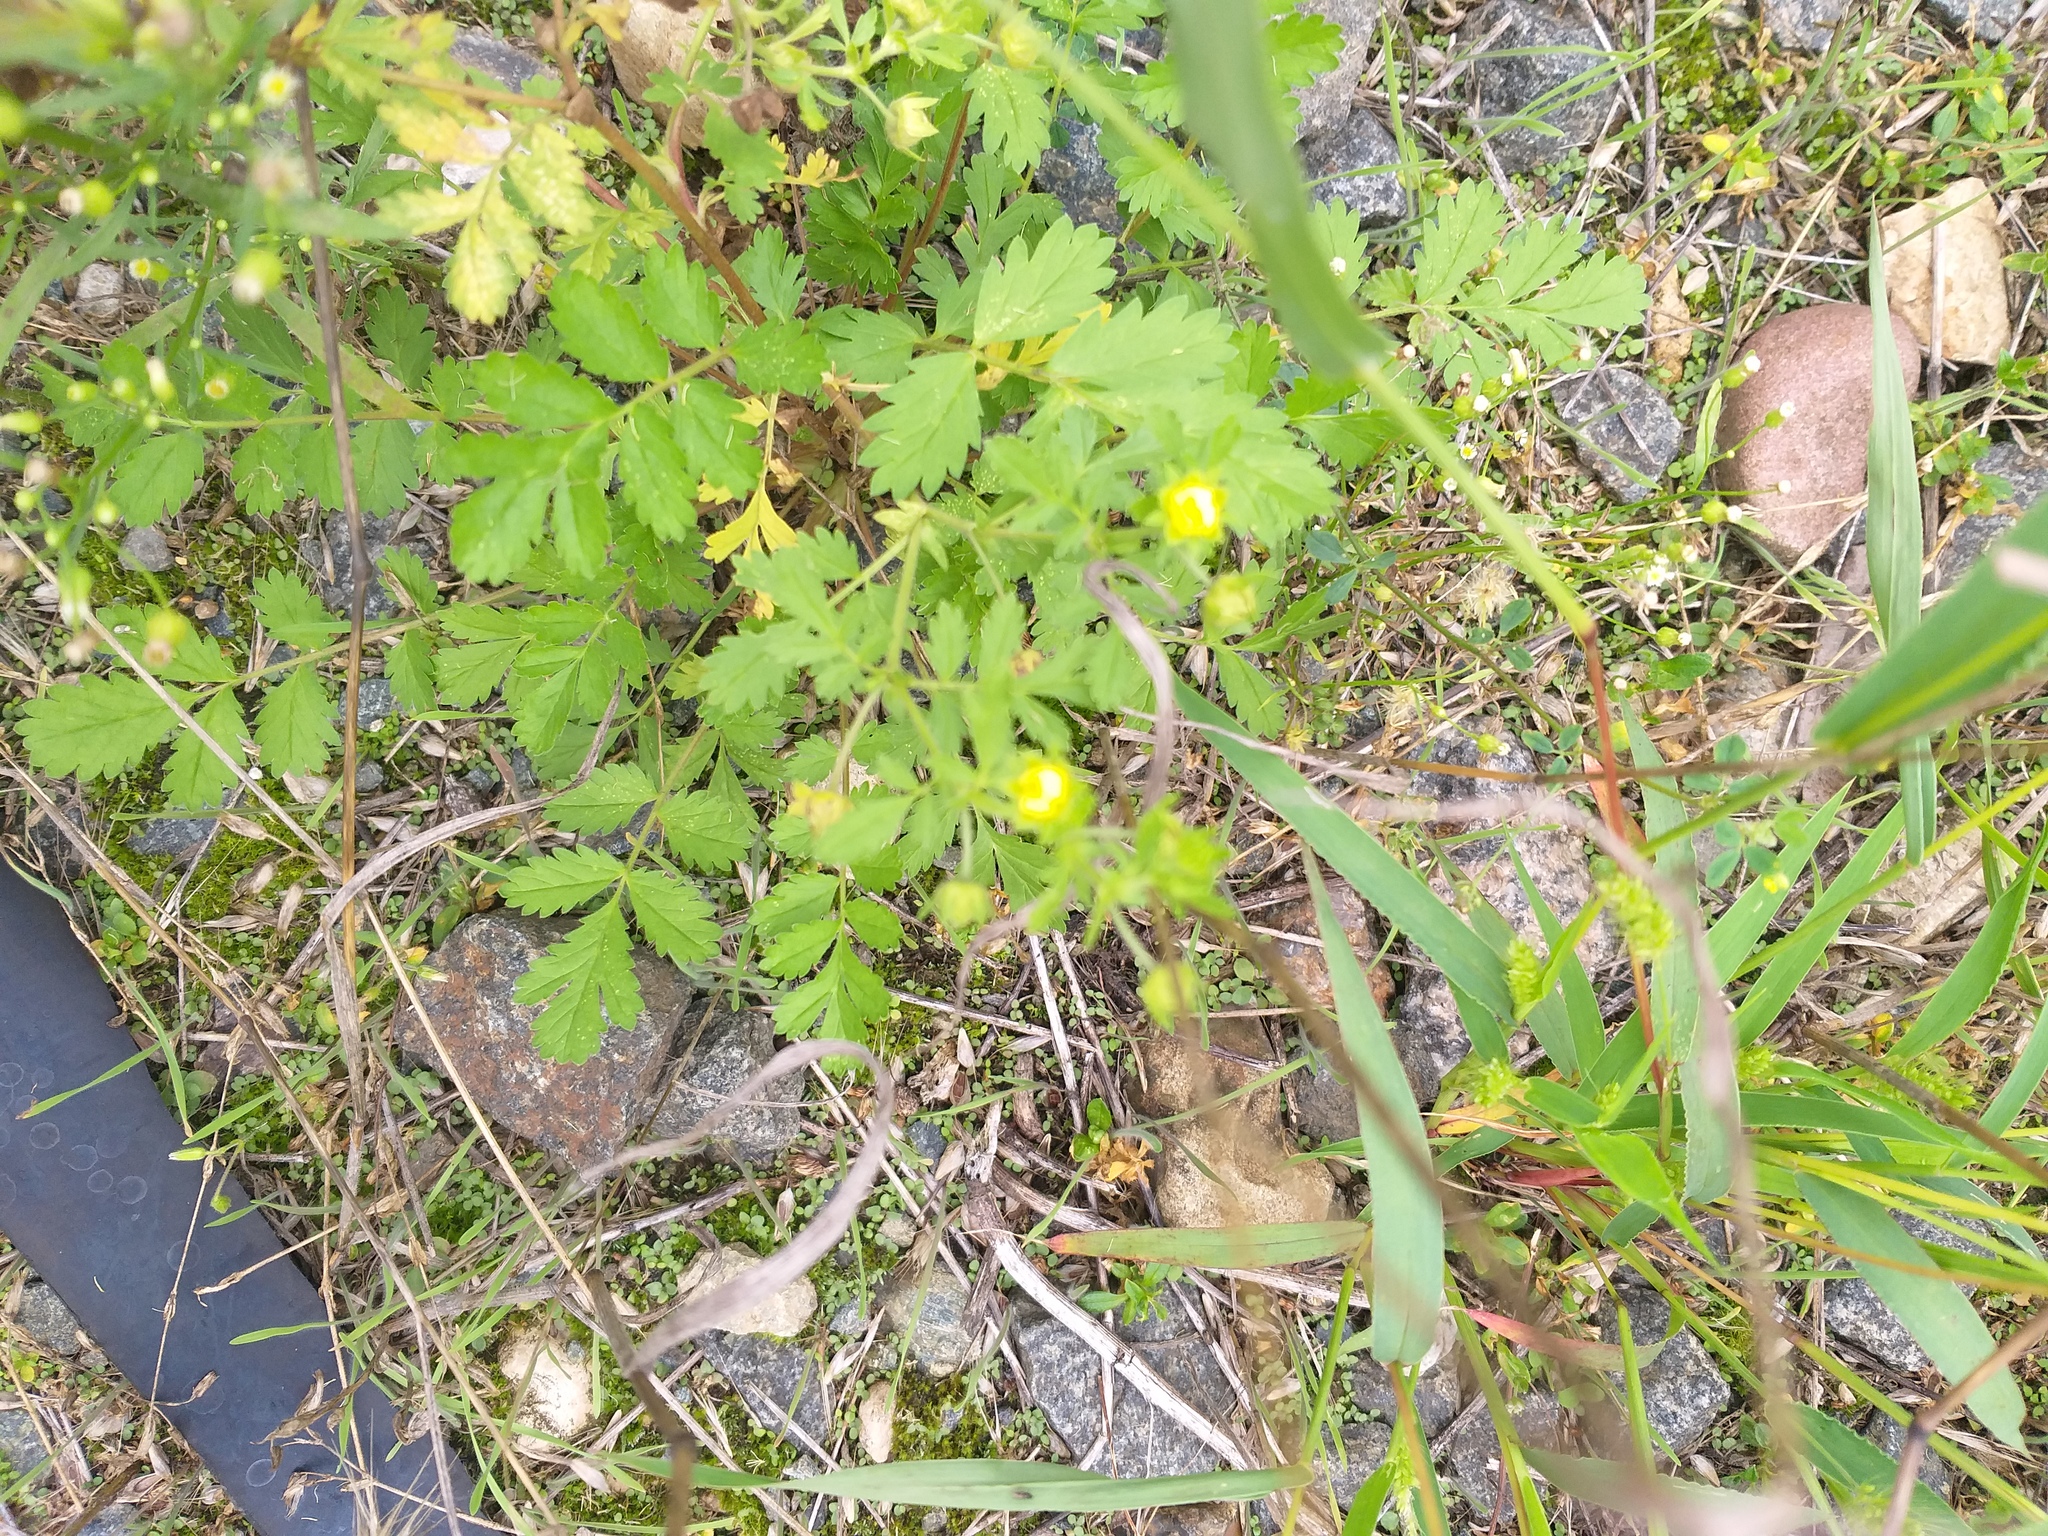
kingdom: Plantae
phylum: Tracheophyta
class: Magnoliopsida
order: Rosales
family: Rosaceae
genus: Potentilla
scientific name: Potentilla supina
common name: Prostrate cinquefoil
